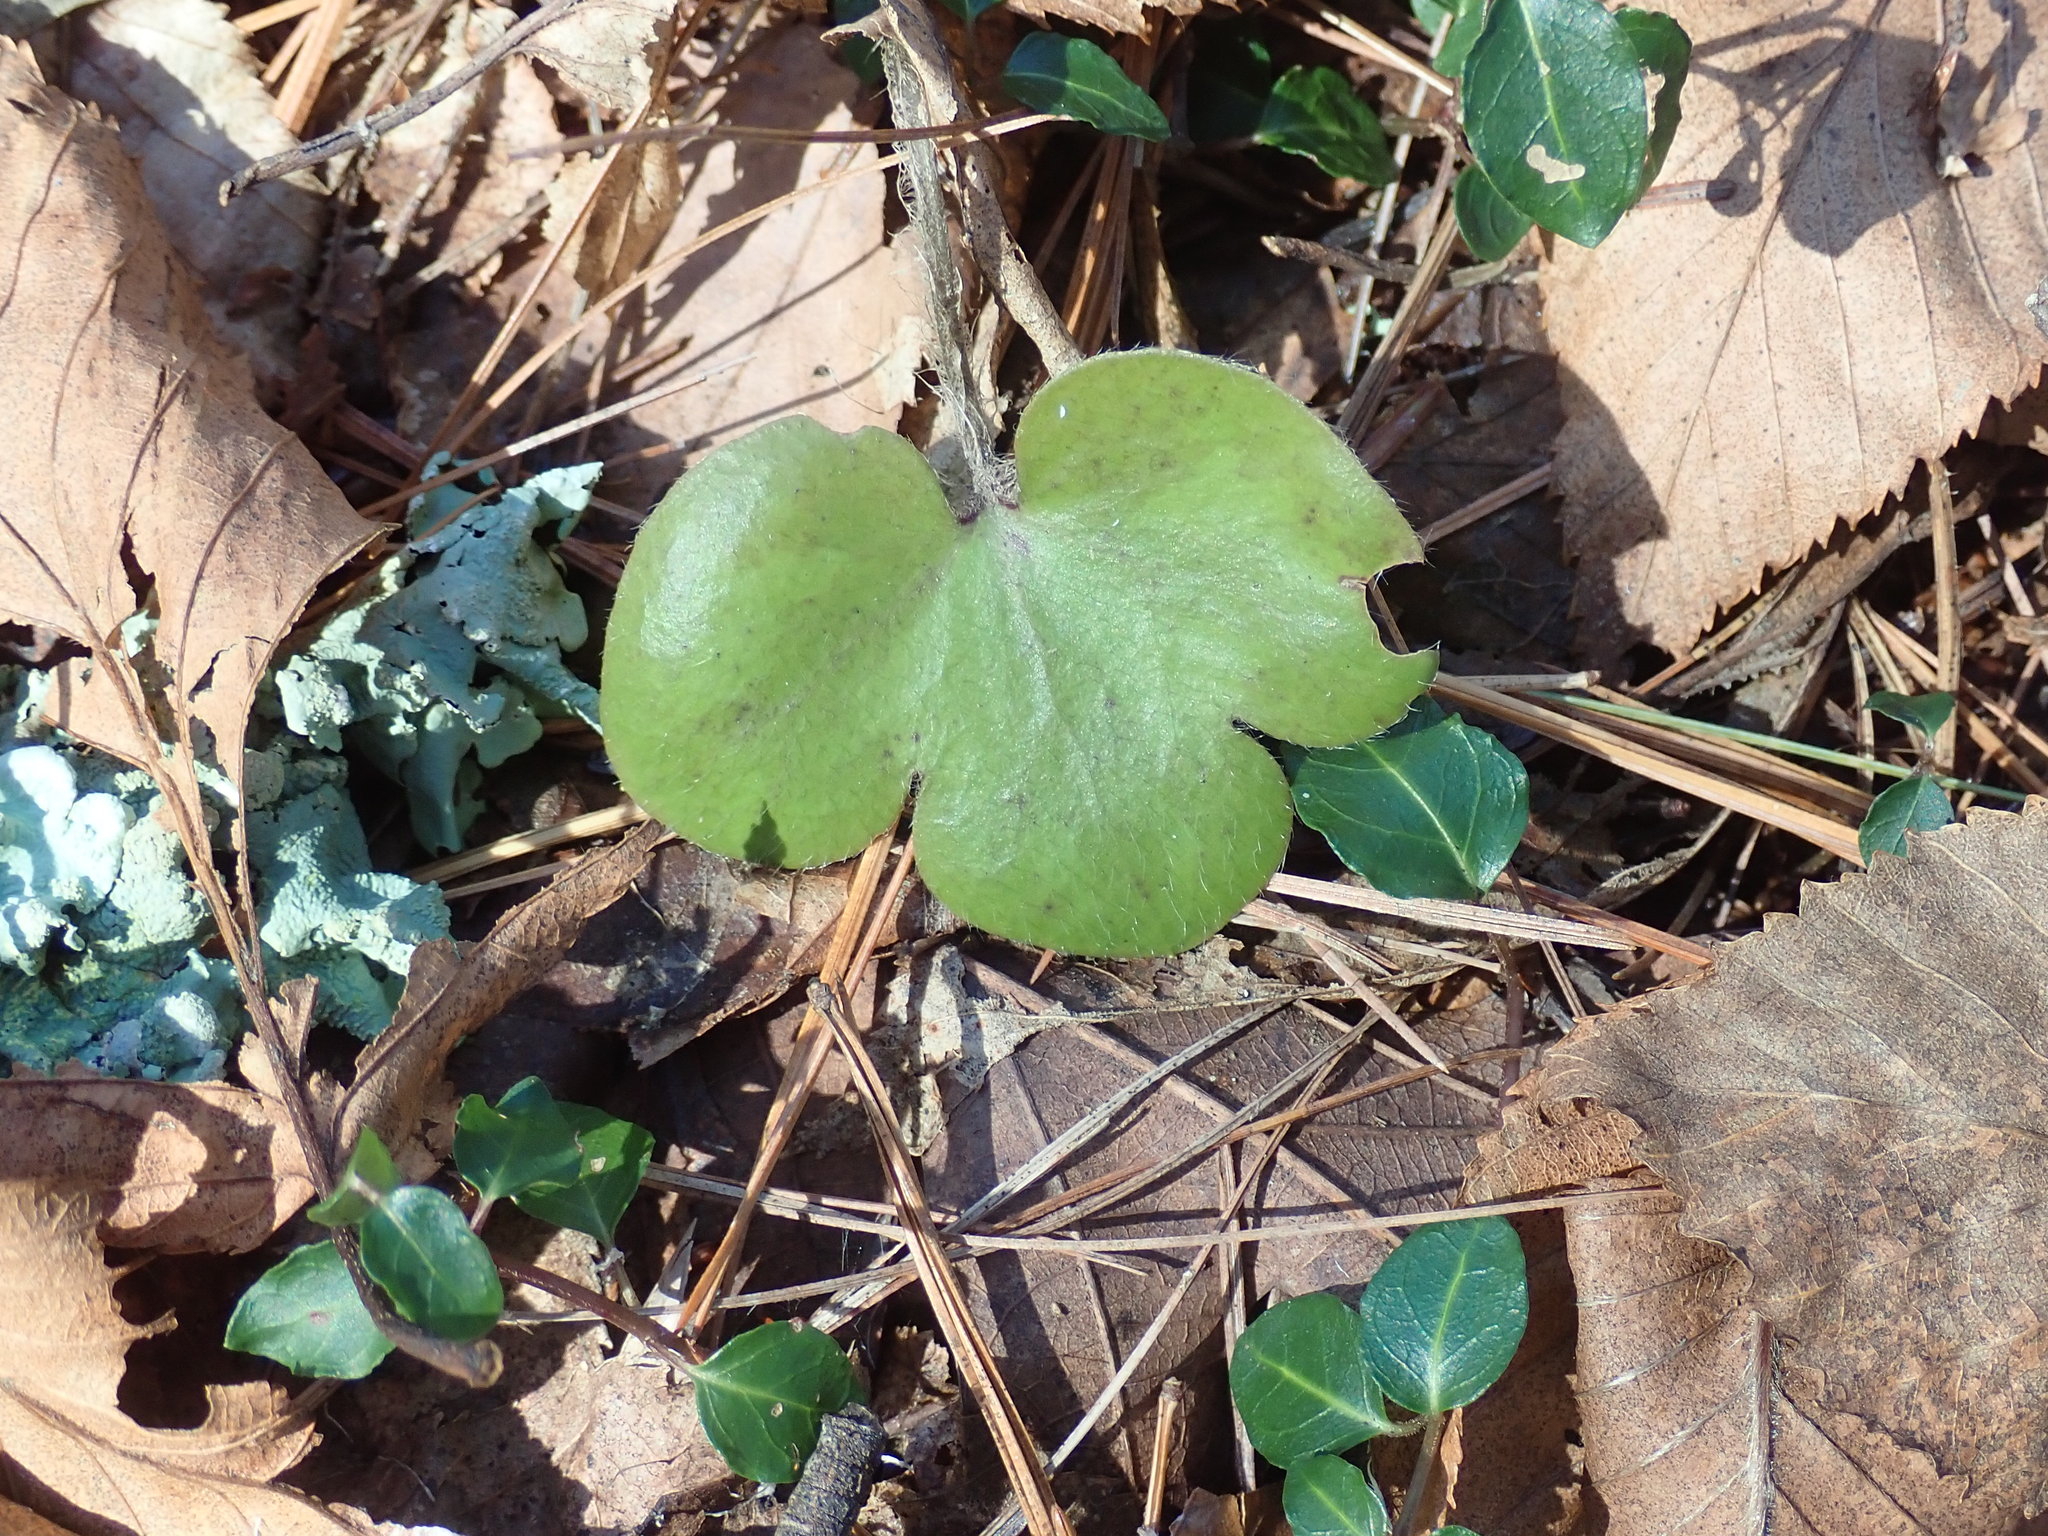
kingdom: Plantae
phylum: Tracheophyta
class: Magnoliopsida
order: Ranunculales
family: Ranunculaceae
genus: Hepatica
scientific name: Hepatica americana
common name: American hepatica
